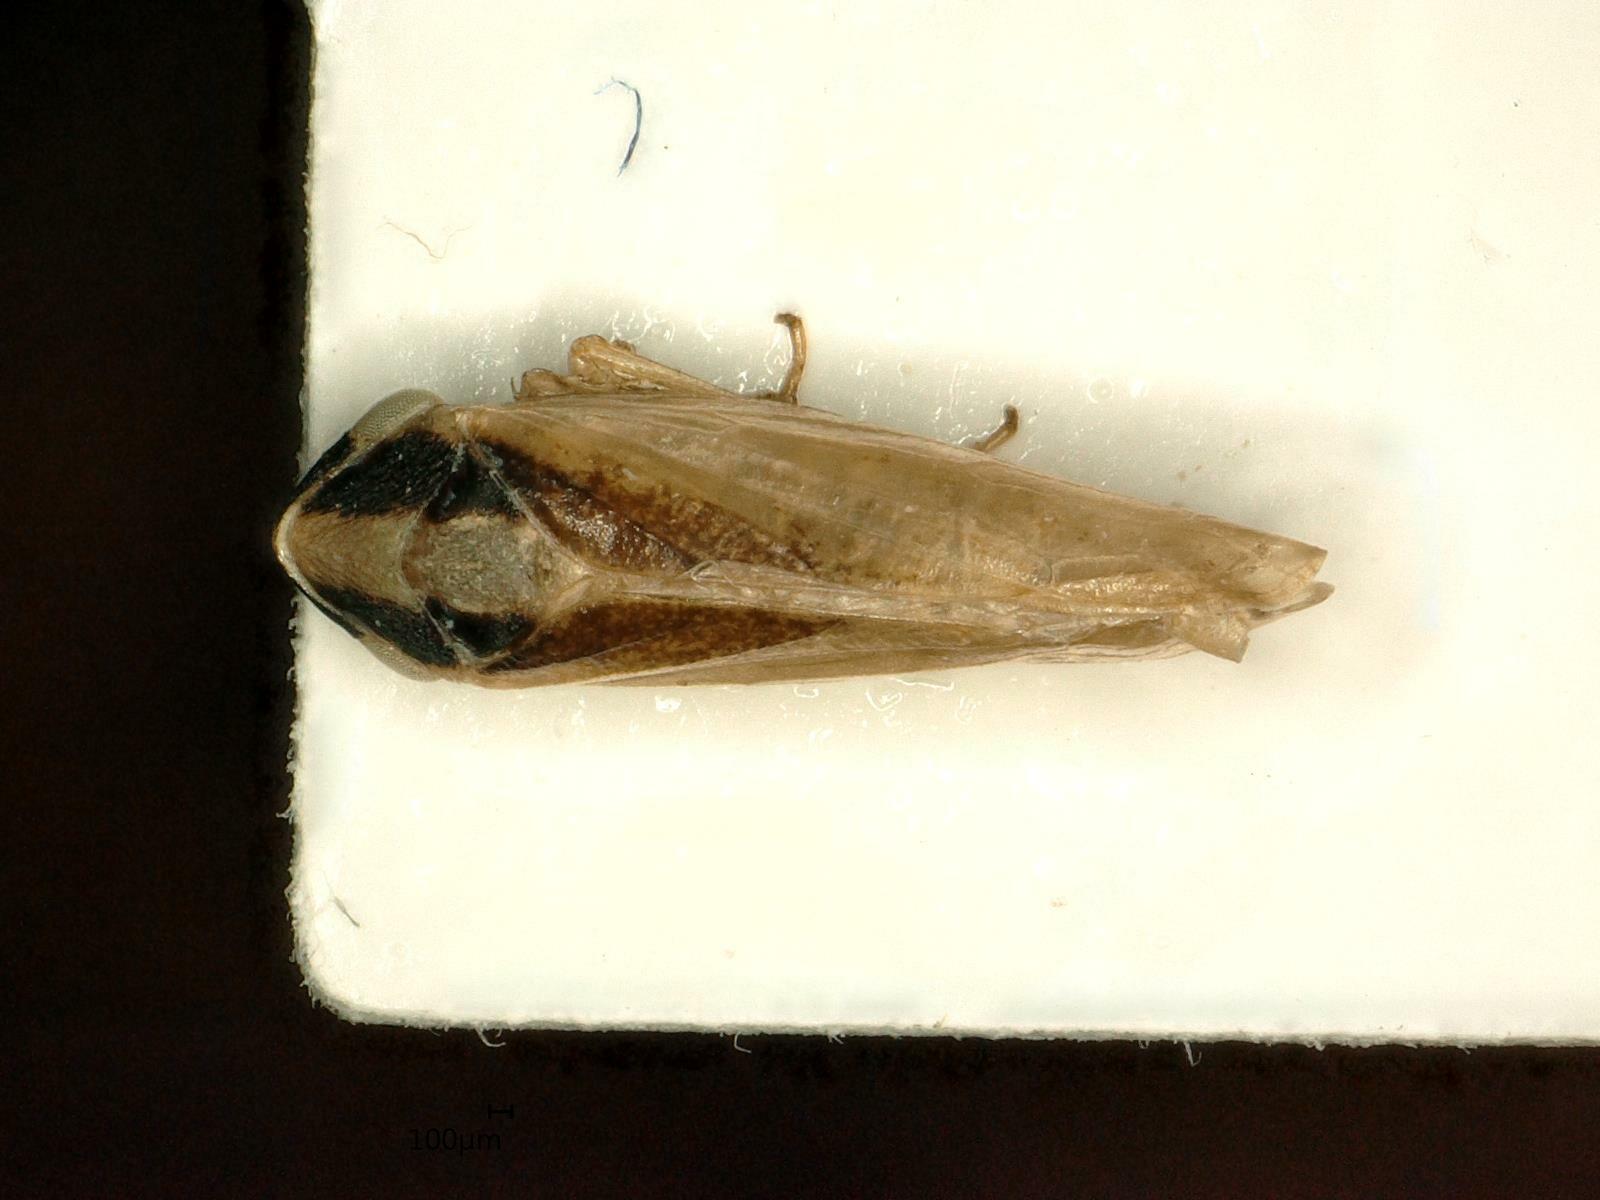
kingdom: Animalia
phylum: Arthropoda
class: Insecta
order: Hemiptera
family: Cicadellidae
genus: Macropsis
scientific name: Macropsis ocellata
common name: Leafhopper
